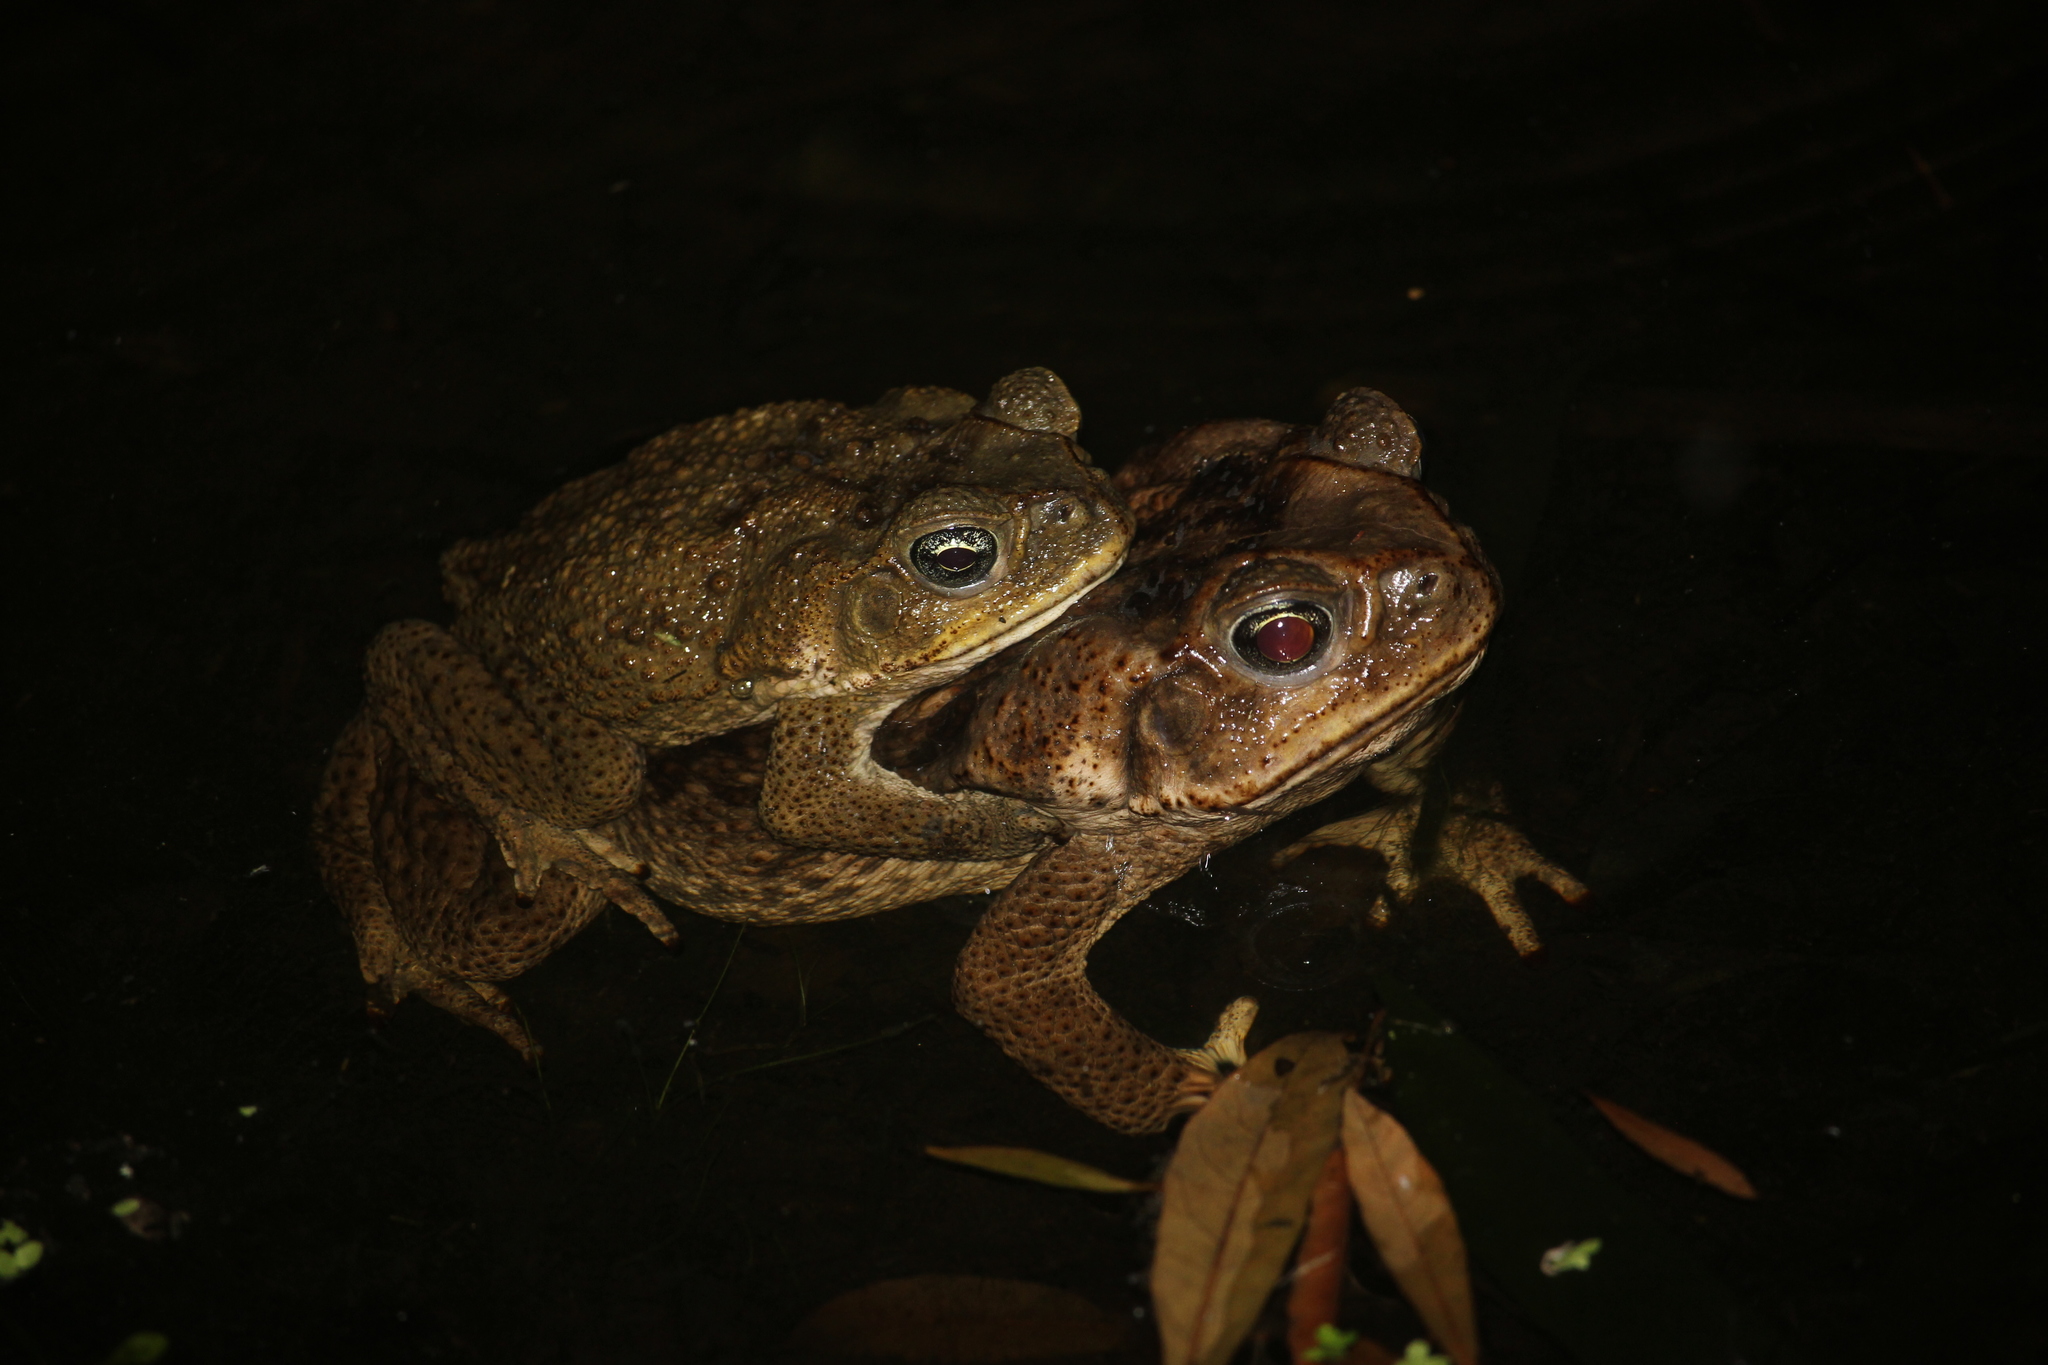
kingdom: Animalia
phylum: Chordata
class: Amphibia
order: Anura
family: Bufonidae
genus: Rhinella
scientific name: Rhinella marina
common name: Cane toad
